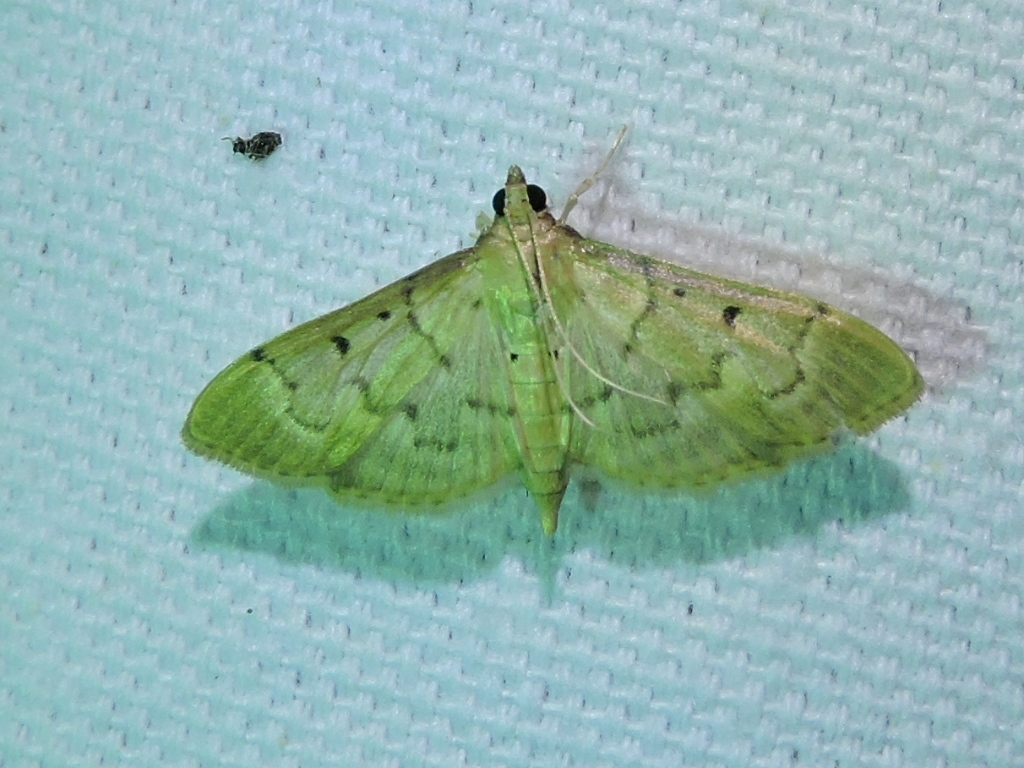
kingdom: Animalia
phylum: Arthropoda
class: Insecta
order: Lepidoptera
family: Crambidae
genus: Herpetogramma
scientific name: Herpetogramma bipunctalis
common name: Southern beet webworm
